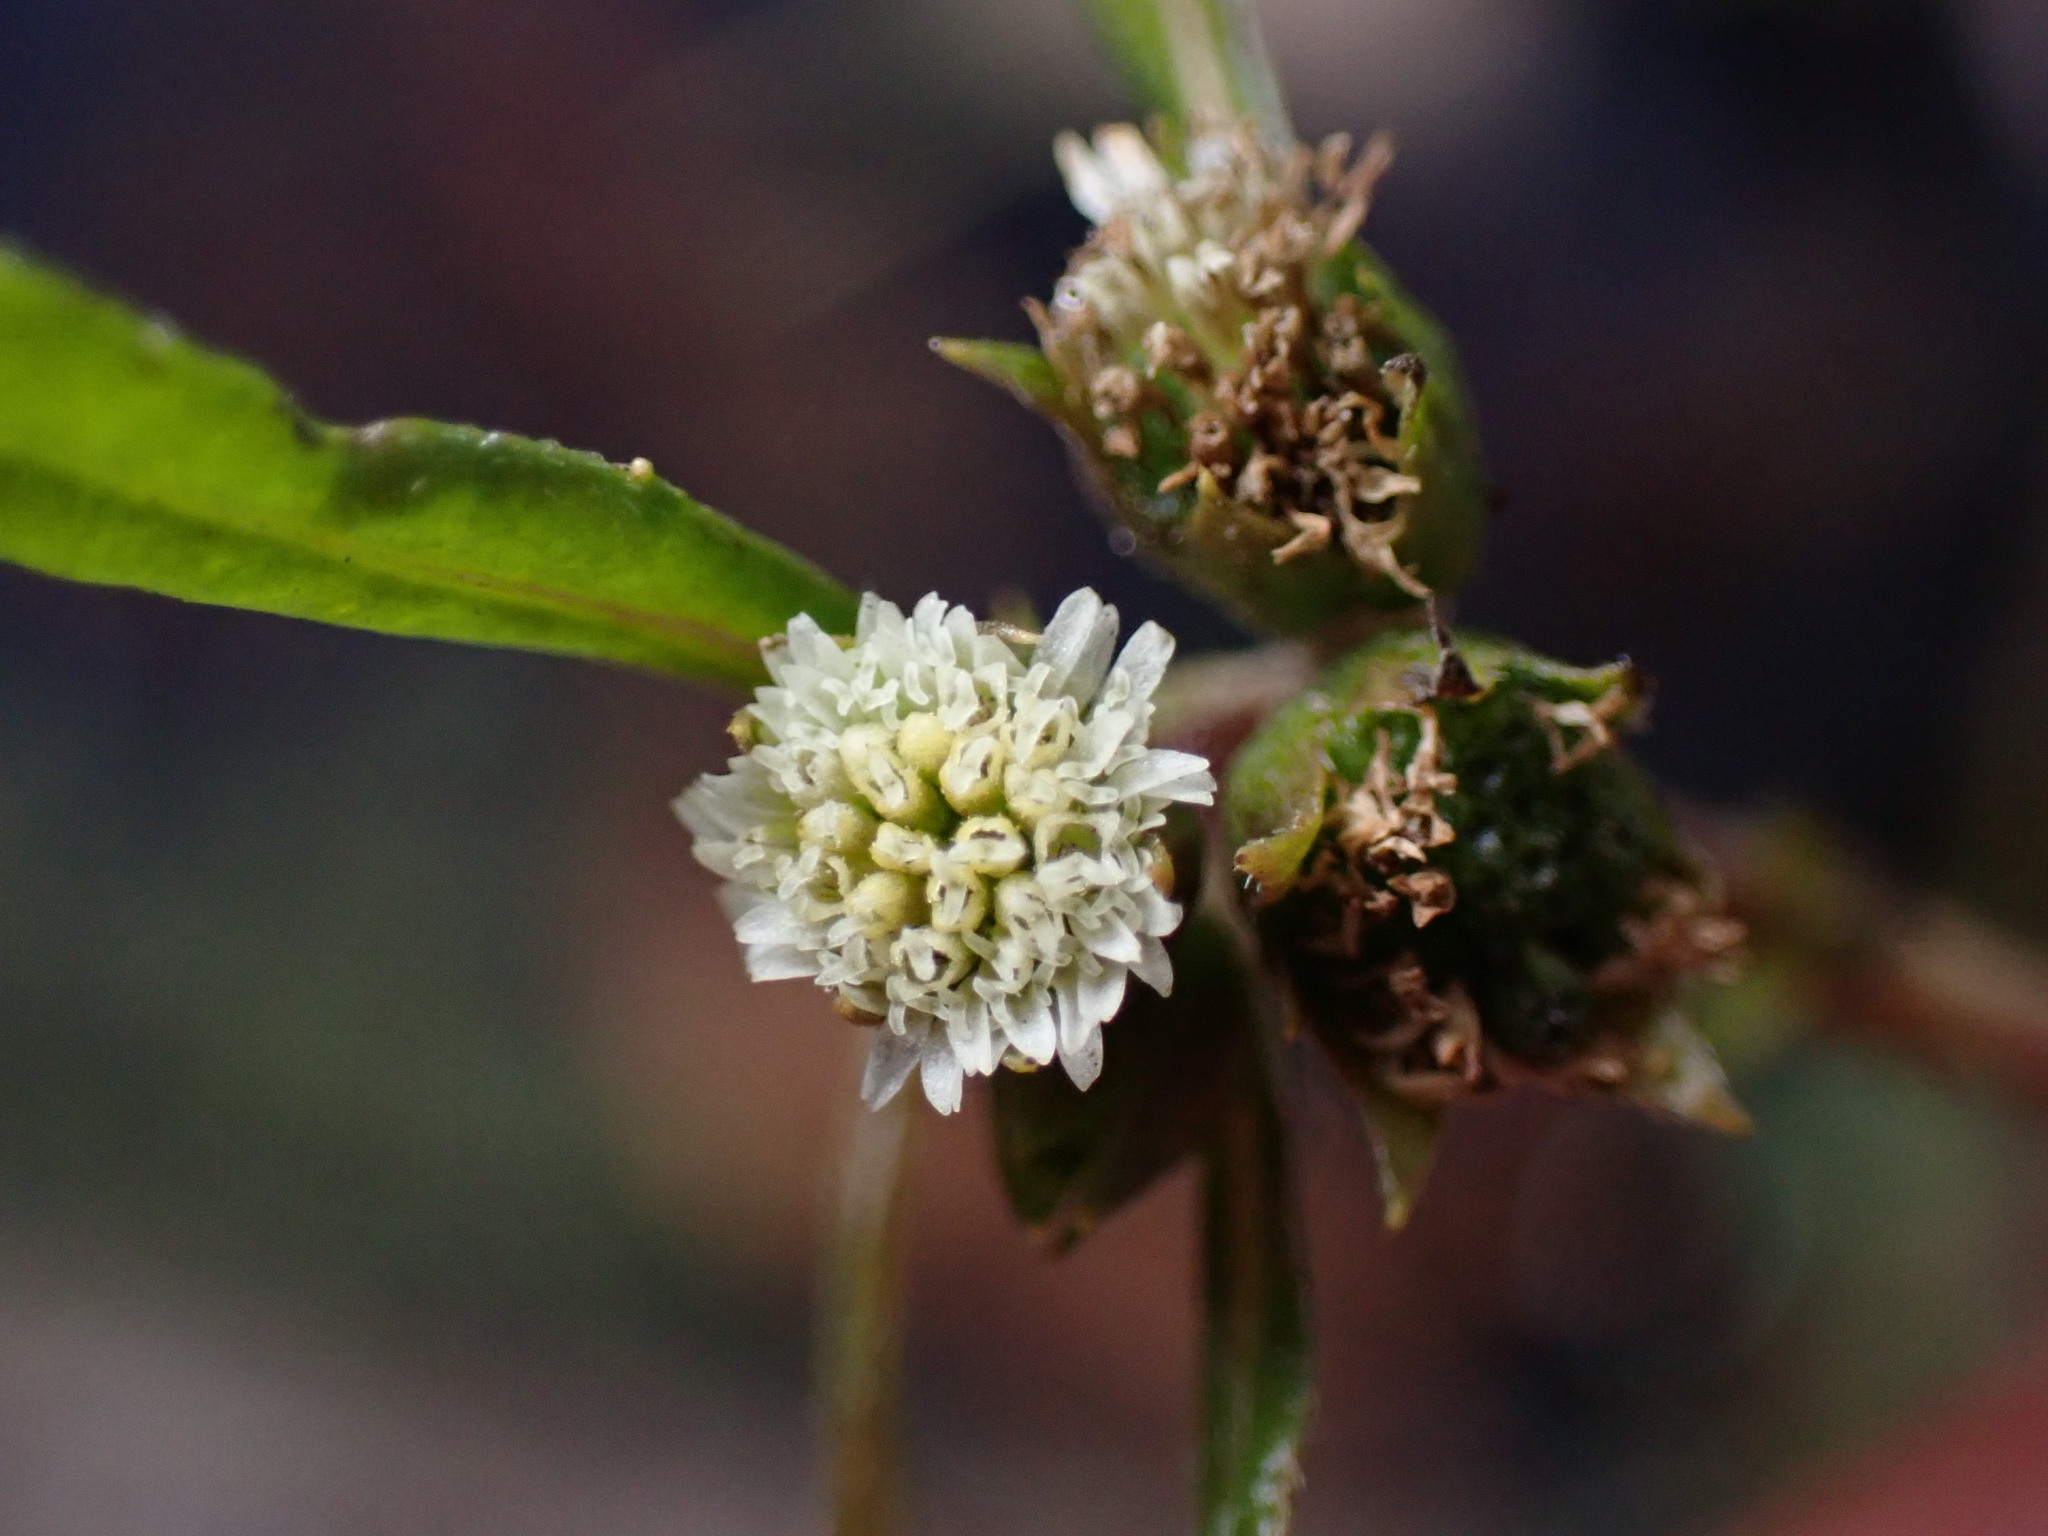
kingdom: Plantae
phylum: Tracheophyta
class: Magnoliopsida
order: Asterales
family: Asteraceae
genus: Eclipta
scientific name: Eclipta prostrata
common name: False daisy
